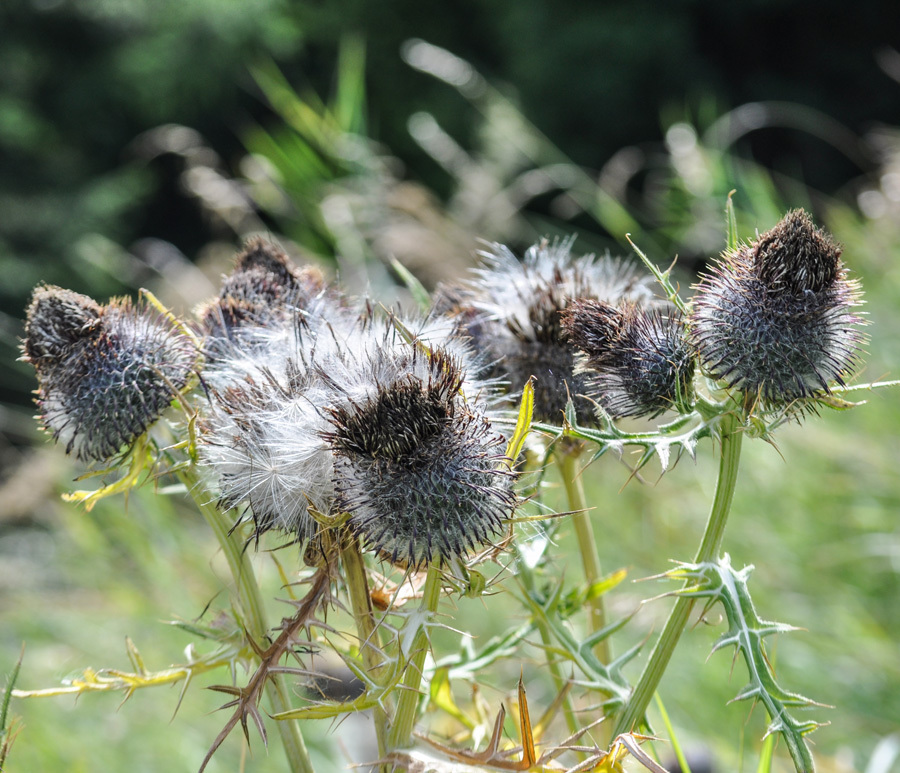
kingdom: Plantae
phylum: Tracheophyta
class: Magnoliopsida
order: Asterales
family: Asteraceae
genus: Lophiolepis
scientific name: Lophiolepis eriophora
